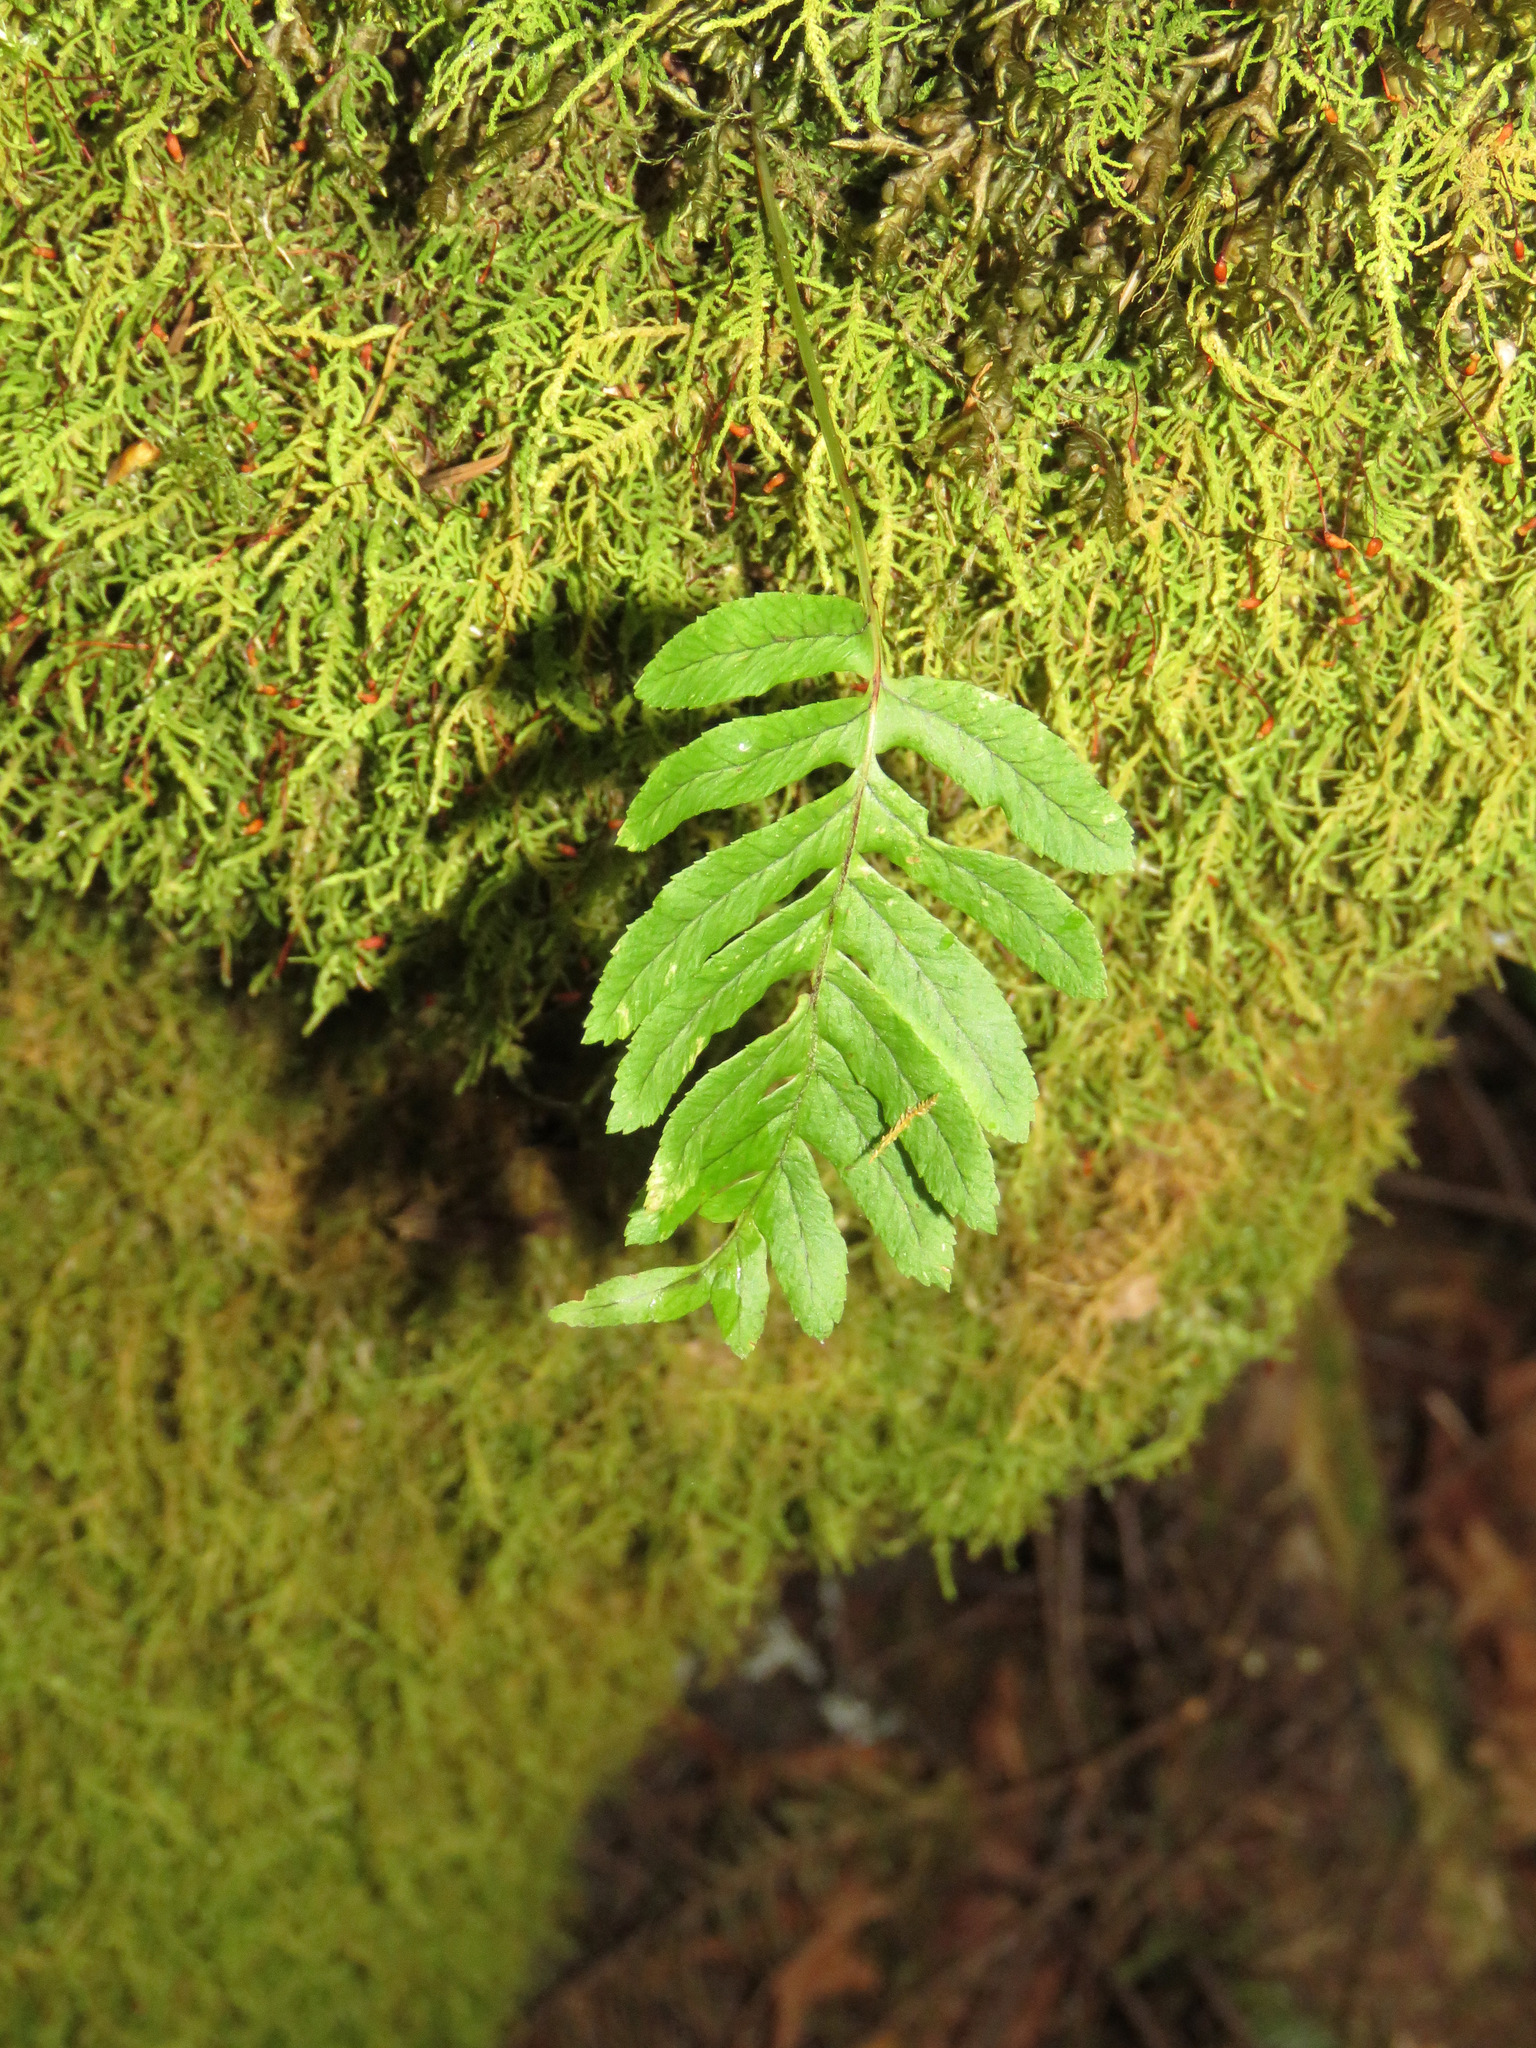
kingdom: Plantae
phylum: Tracheophyta
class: Polypodiopsida
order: Polypodiales
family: Polypodiaceae
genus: Polypodium
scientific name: Polypodium glycyrrhiza
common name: Licorice fern
